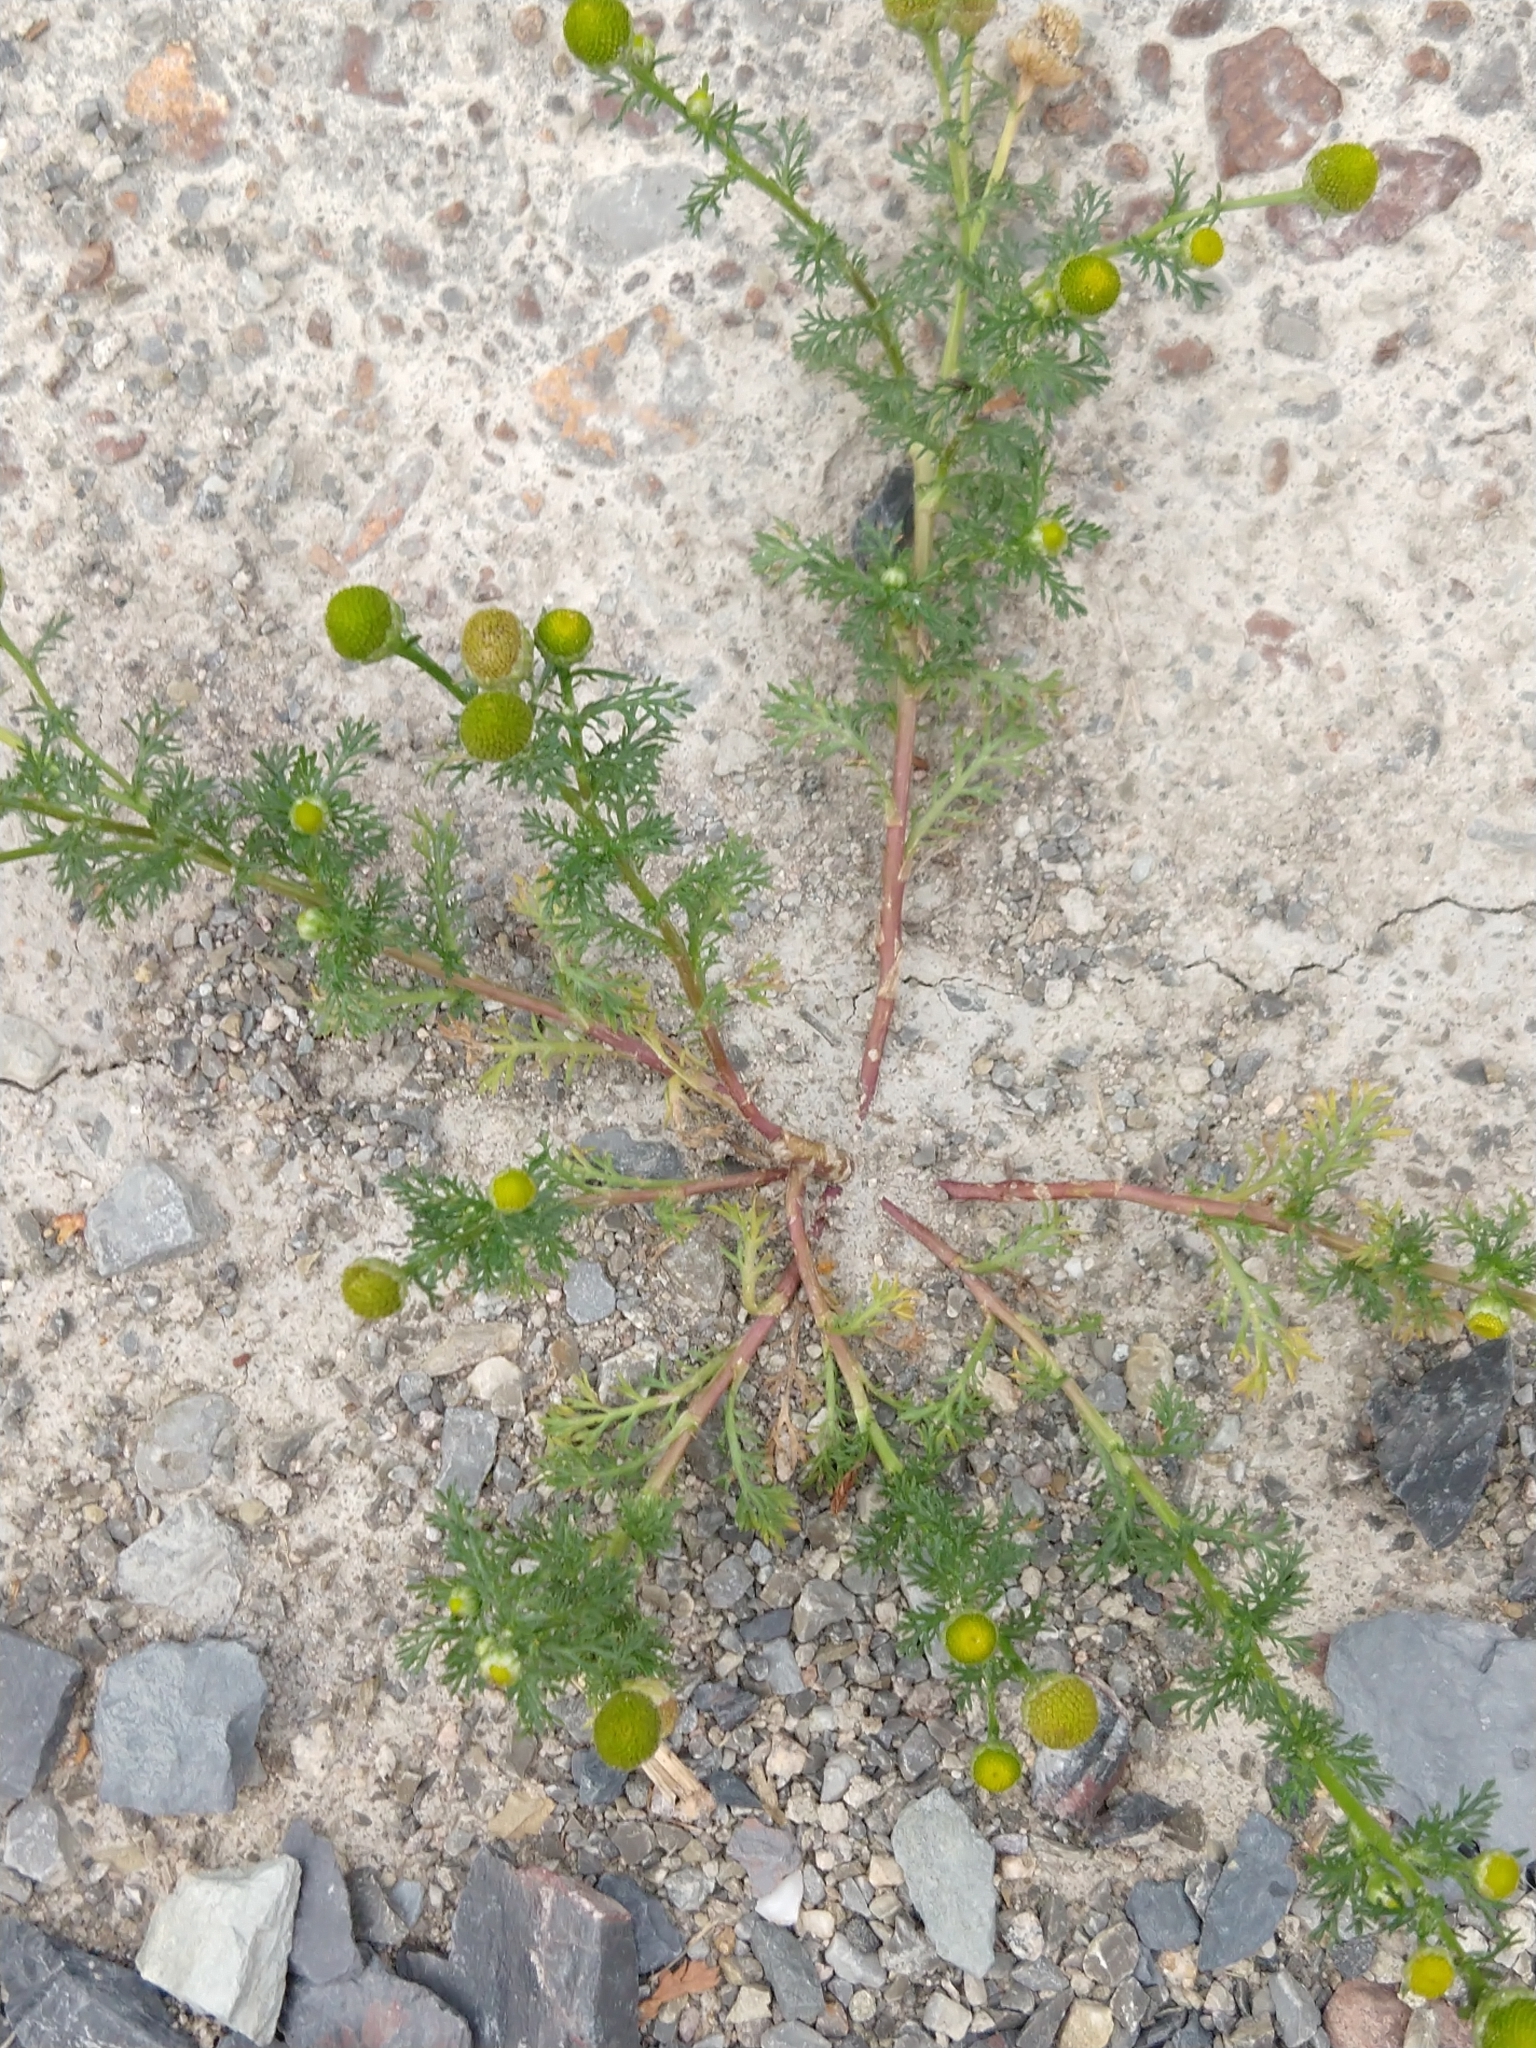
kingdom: Plantae
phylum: Tracheophyta
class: Magnoliopsida
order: Asterales
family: Asteraceae
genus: Matricaria
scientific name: Matricaria discoidea
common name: Disc mayweed
